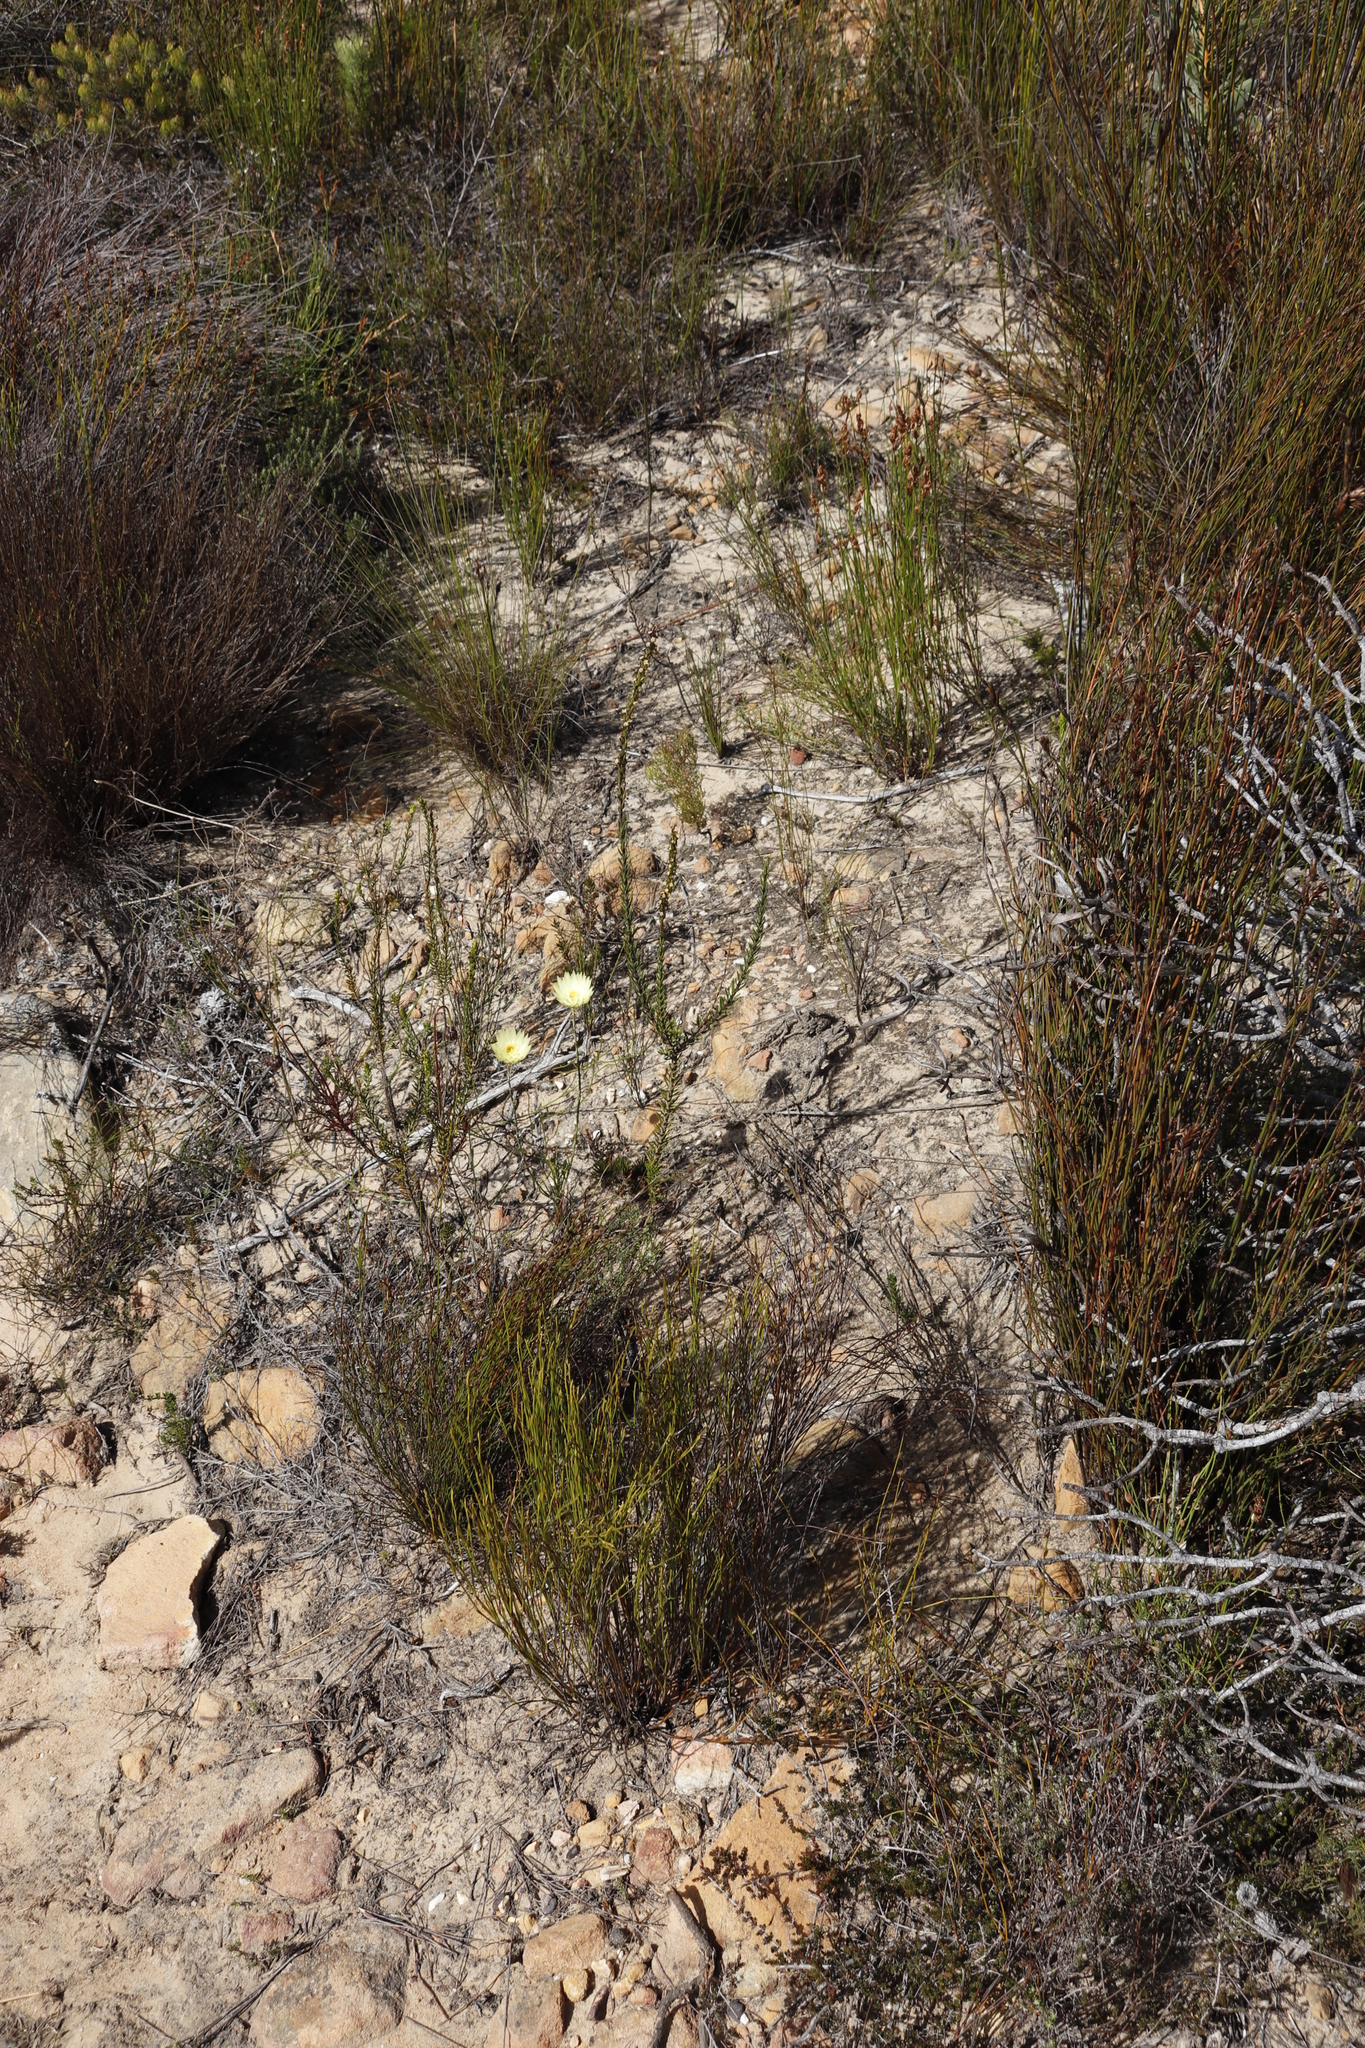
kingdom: Plantae
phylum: Tracheophyta
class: Magnoliopsida
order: Lamiales
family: Scrophulariaceae
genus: Microdon
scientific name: Microdon dubius
